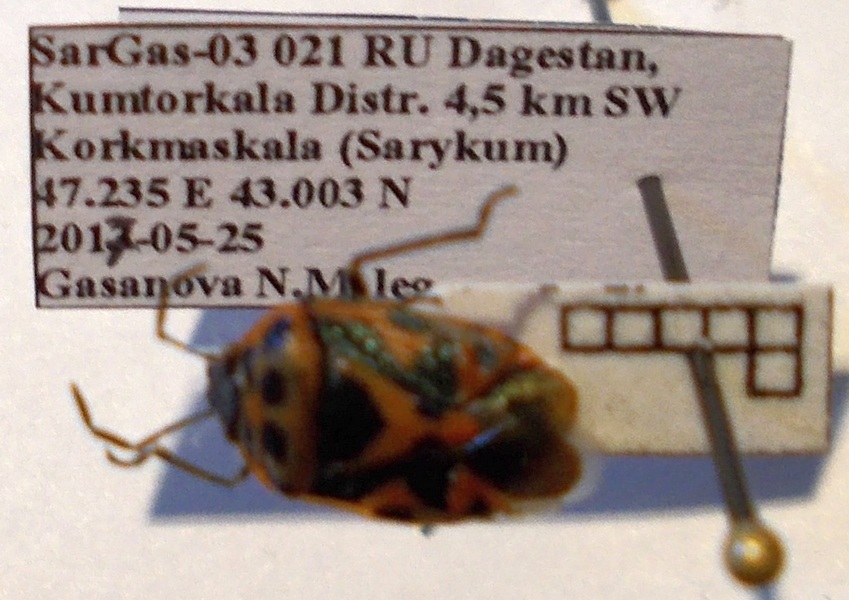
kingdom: Animalia
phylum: Arthropoda
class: Insecta
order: Hemiptera
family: Pentatomidae
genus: Eurydema
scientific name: Eurydema ornata
